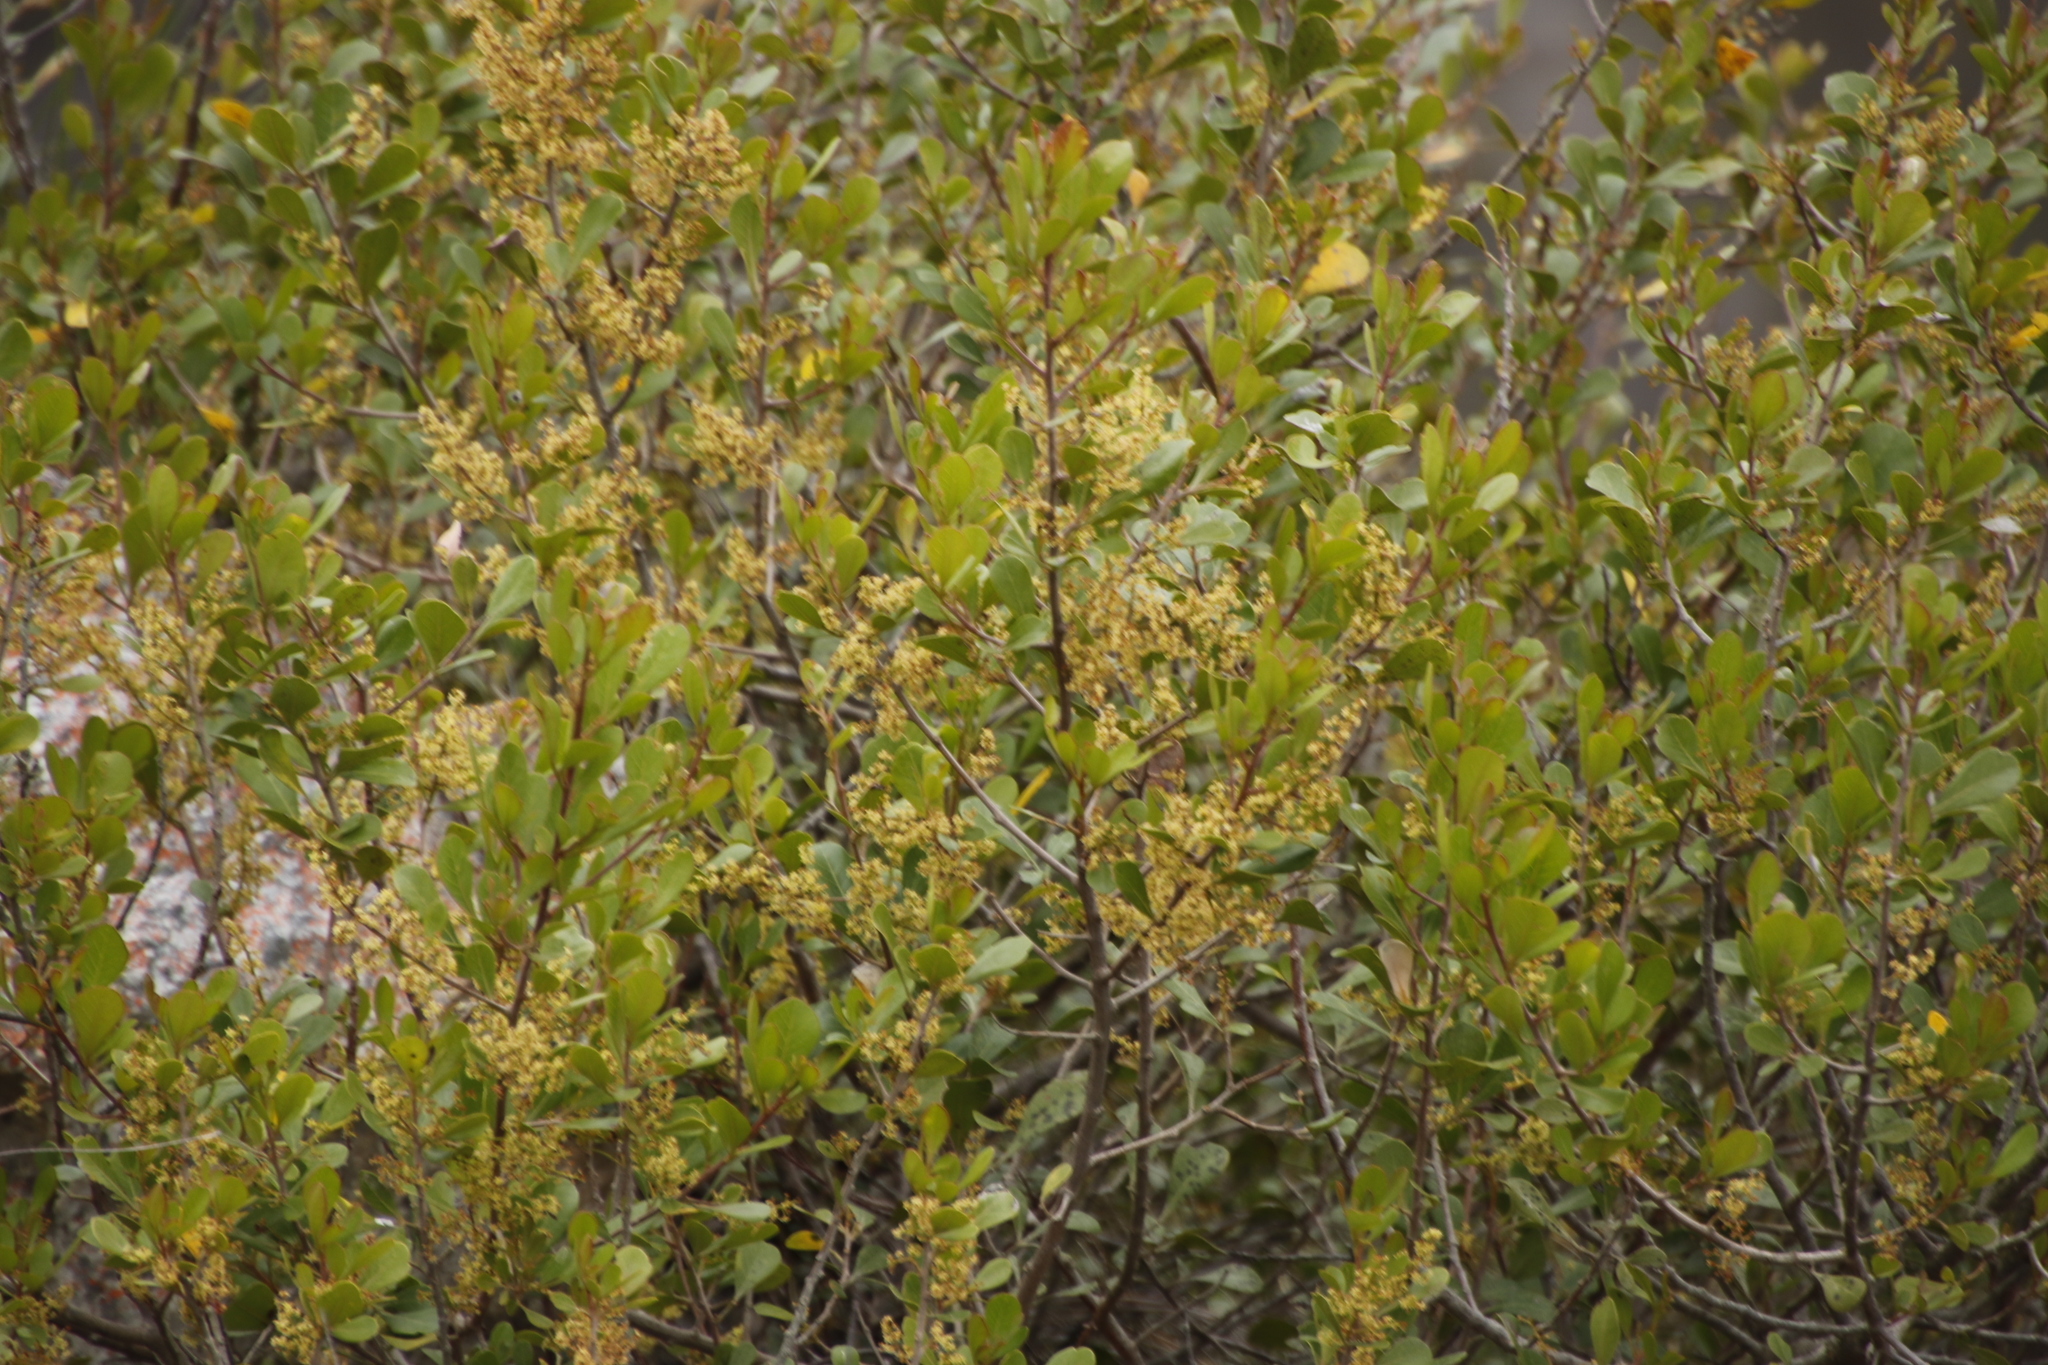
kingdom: Plantae
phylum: Tracheophyta
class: Magnoliopsida
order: Sapindales
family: Anacardiaceae
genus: Searsia
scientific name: Searsia lucida
